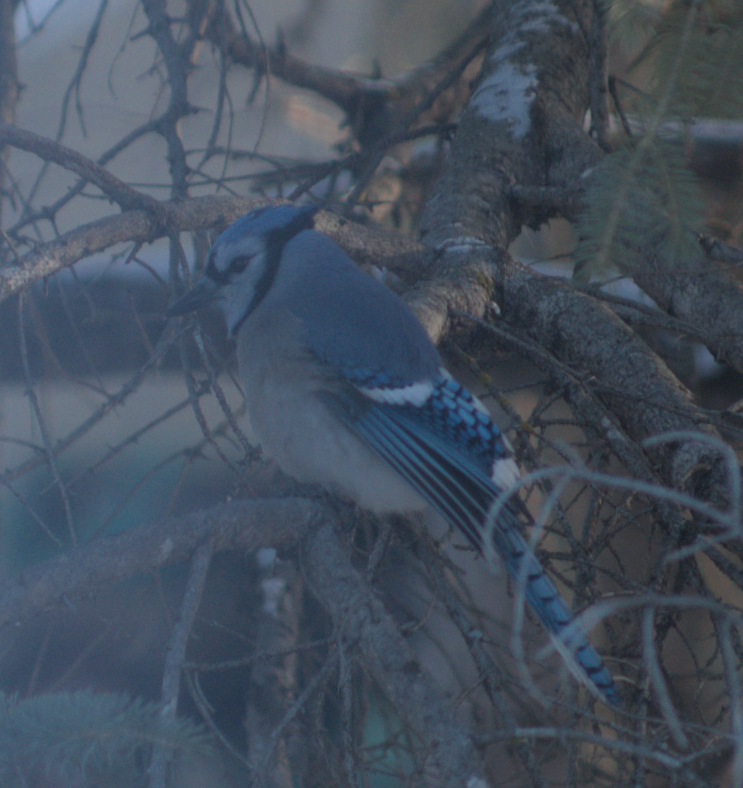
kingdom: Animalia
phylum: Chordata
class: Aves
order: Passeriformes
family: Corvidae
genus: Cyanocitta
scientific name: Cyanocitta cristata
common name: Blue jay
